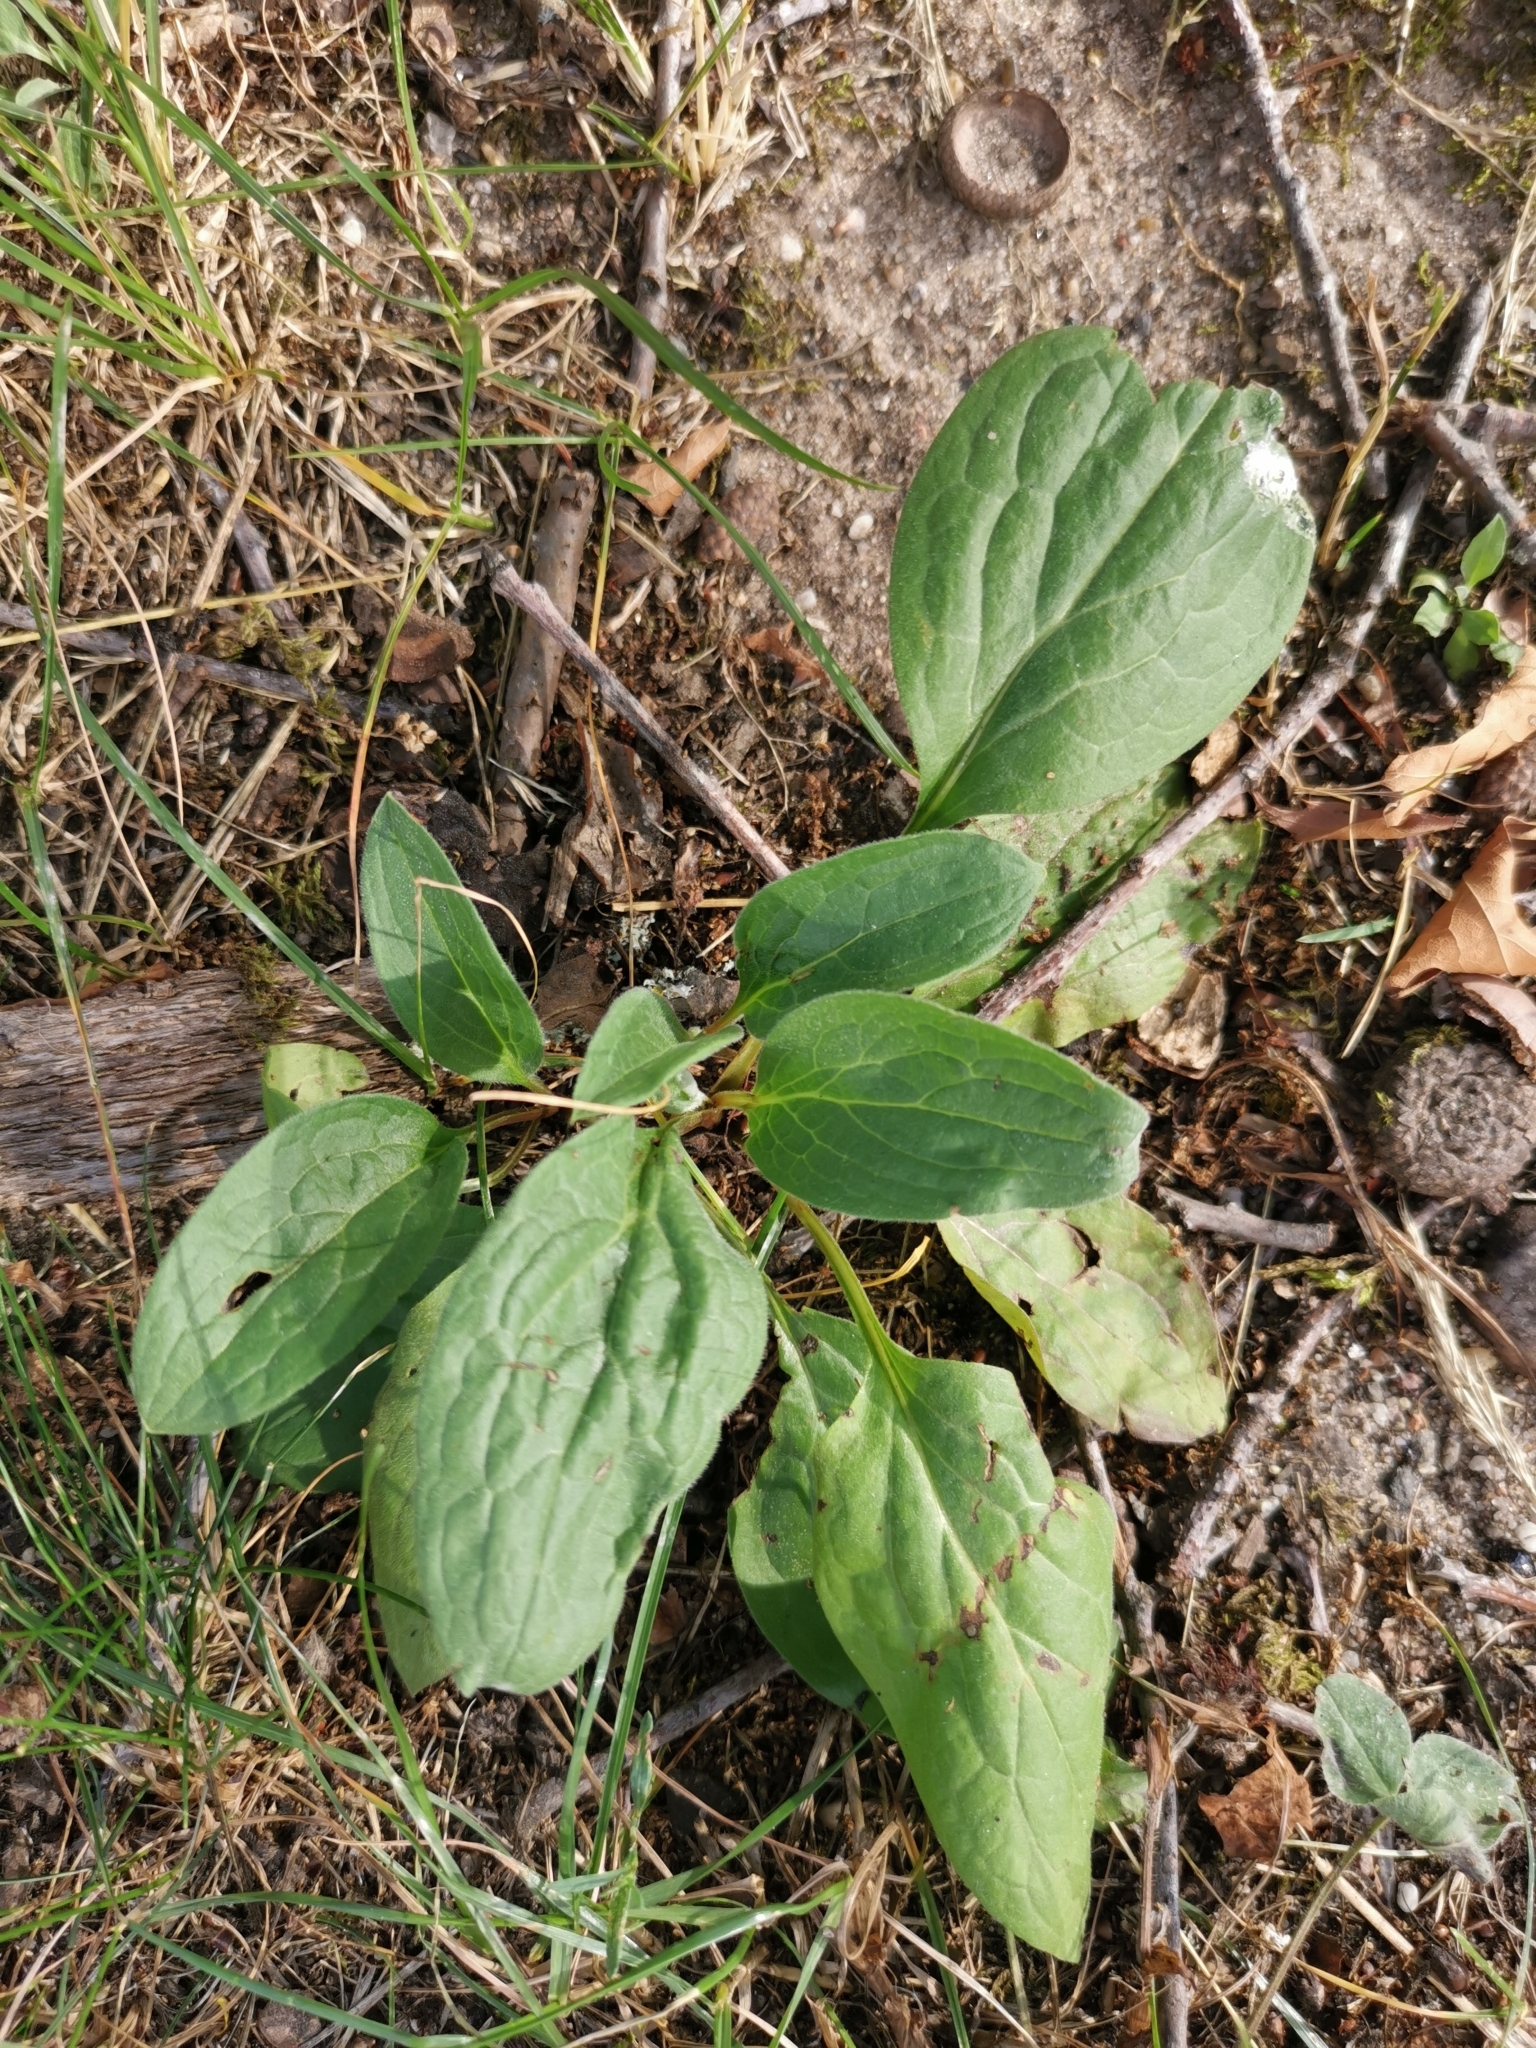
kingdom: Plantae
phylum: Tracheophyta
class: Magnoliopsida
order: Lamiales
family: Plantaginaceae
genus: Plantago
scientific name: Plantago major
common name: Common plantain
